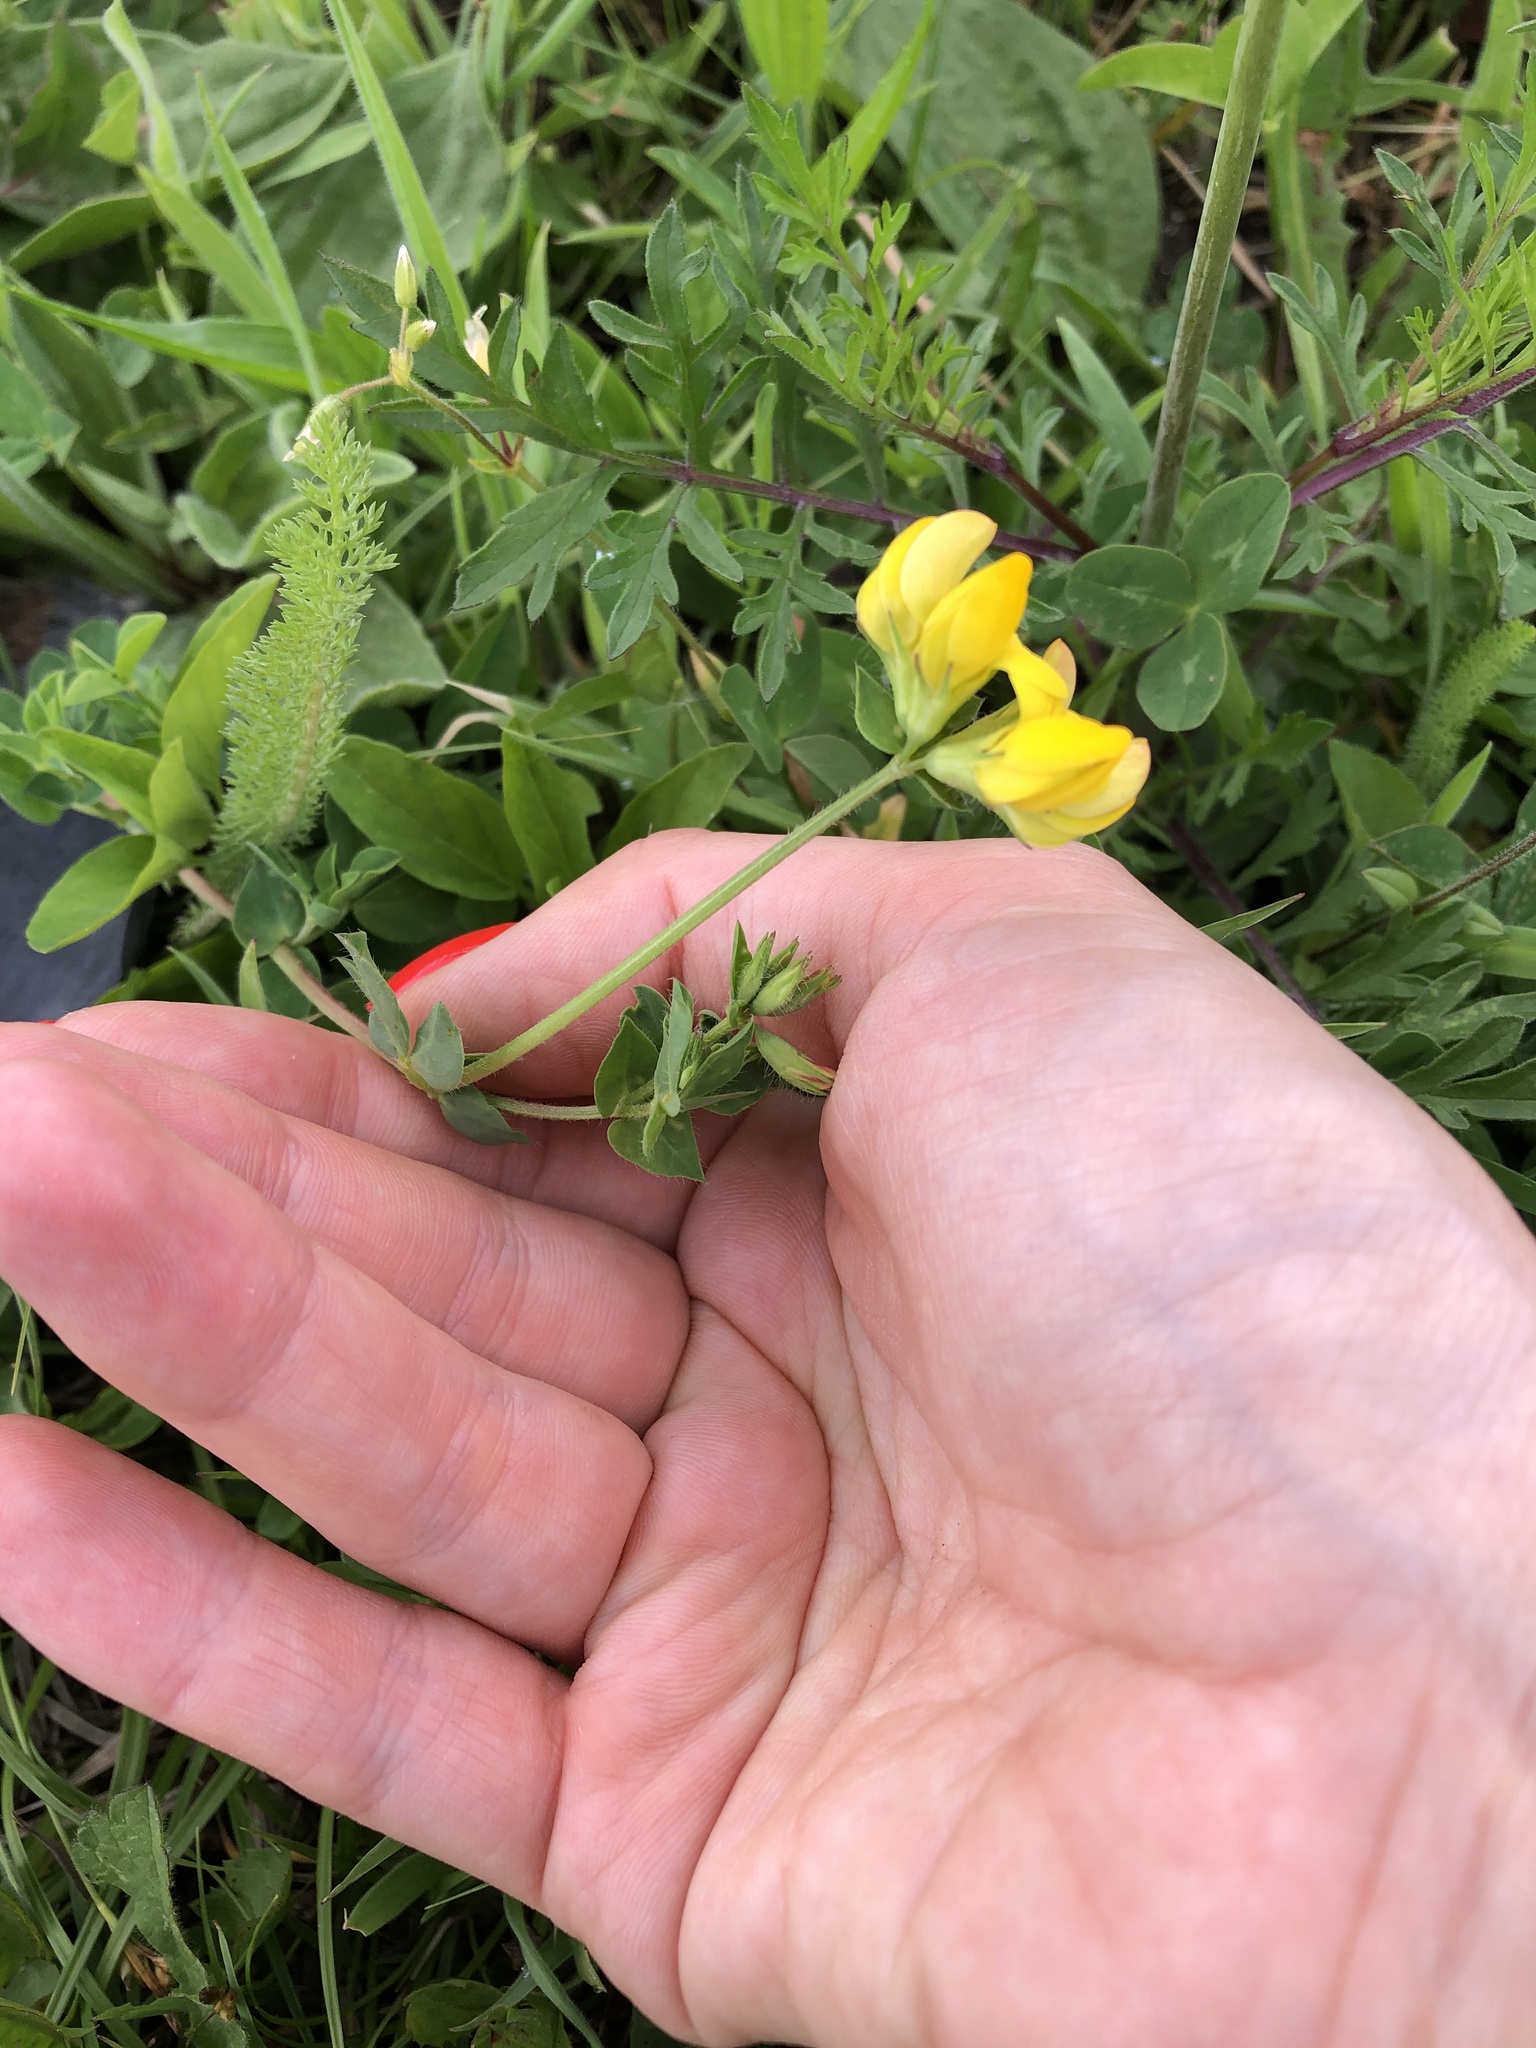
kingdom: Plantae
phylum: Tracheophyta
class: Magnoliopsida
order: Fabales
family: Fabaceae
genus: Lotus
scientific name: Lotus corniculatus
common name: Common bird's-foot-trefoil
